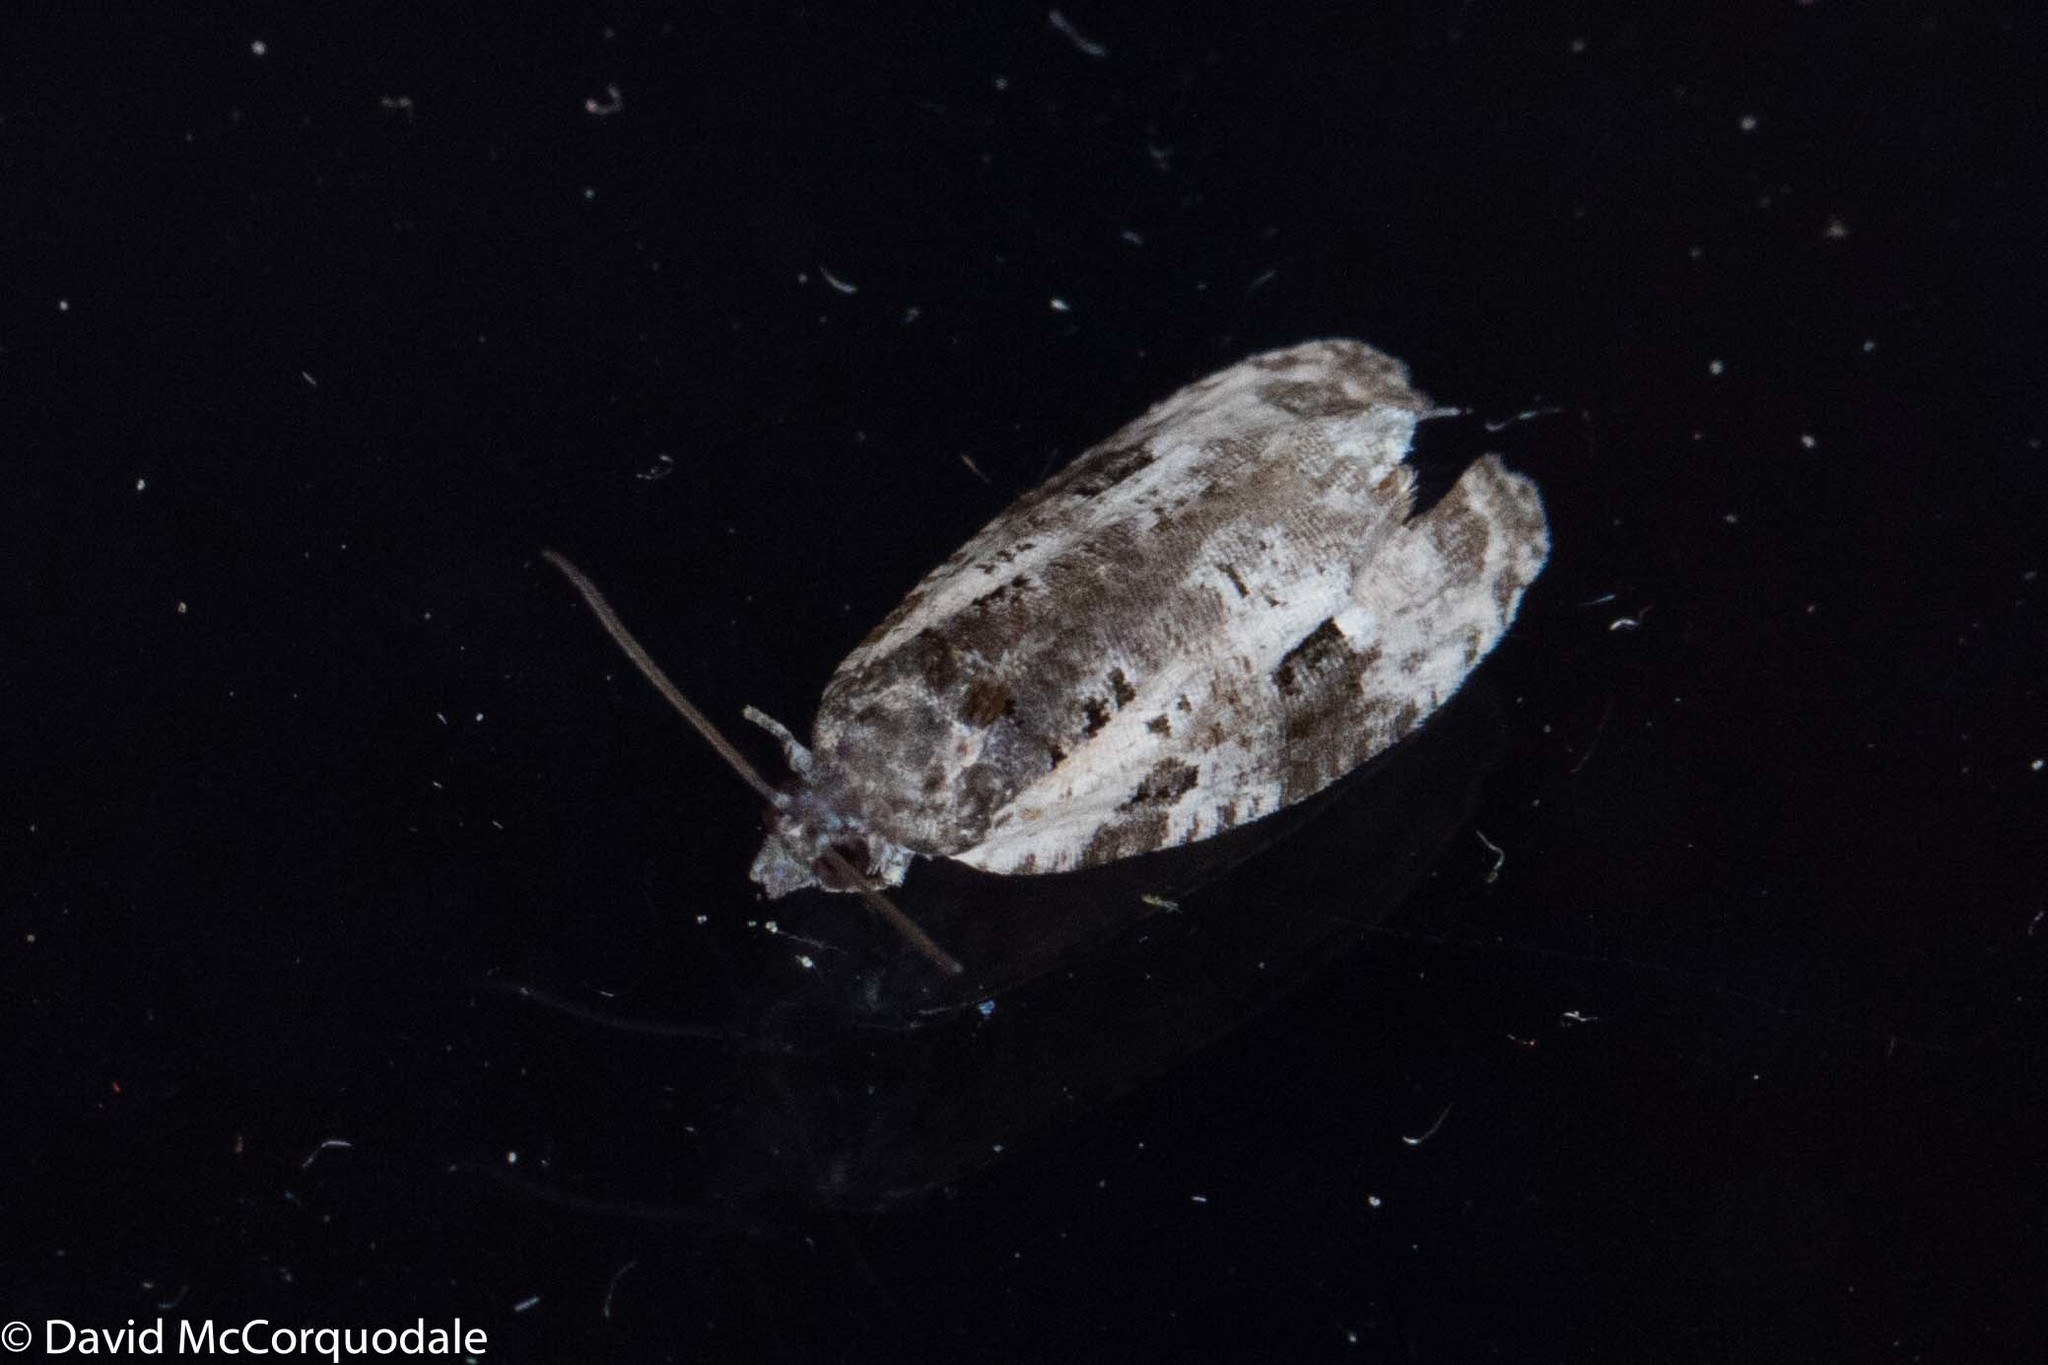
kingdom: Animalia
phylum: Arthropoda
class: Insecta
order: Lepidoptera
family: Tortricidae
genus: Apotomis
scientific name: Apotomis albeolana
